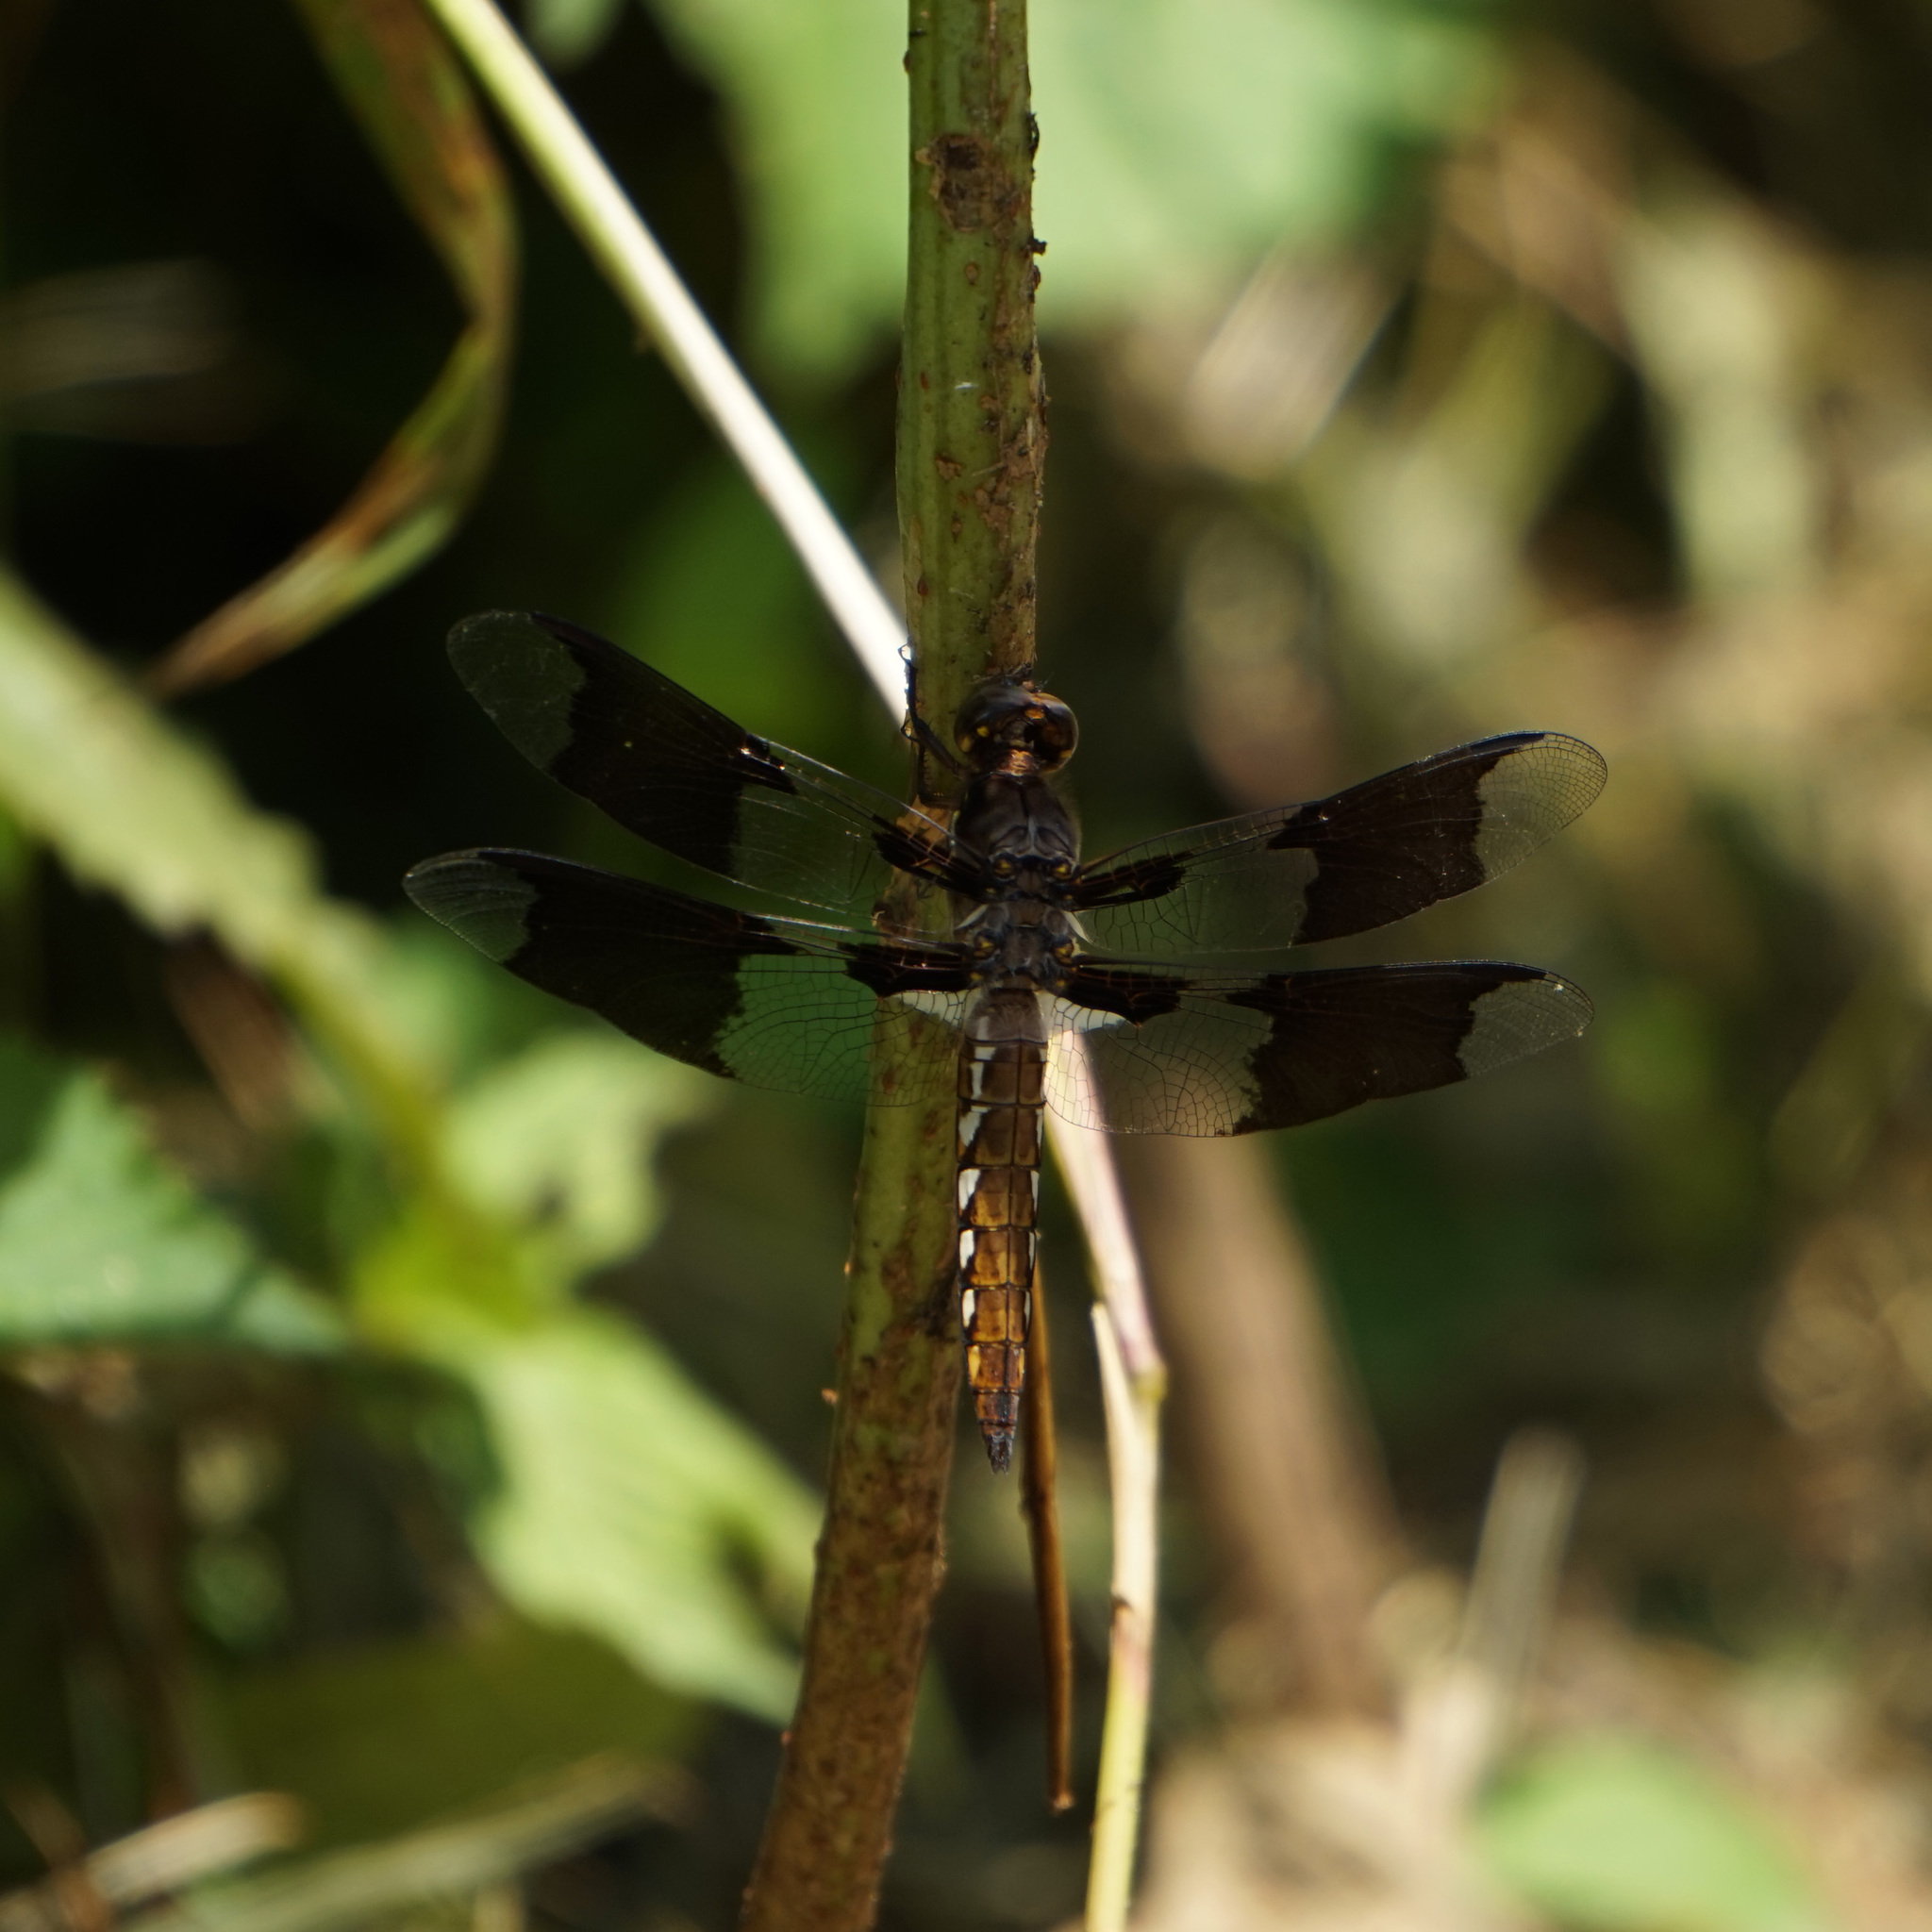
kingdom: Animalia
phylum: Arthropoda
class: Insecta
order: Odonata
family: Libellulidae
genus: Plathemis
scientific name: Plathemis lydia
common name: Common whitetail
